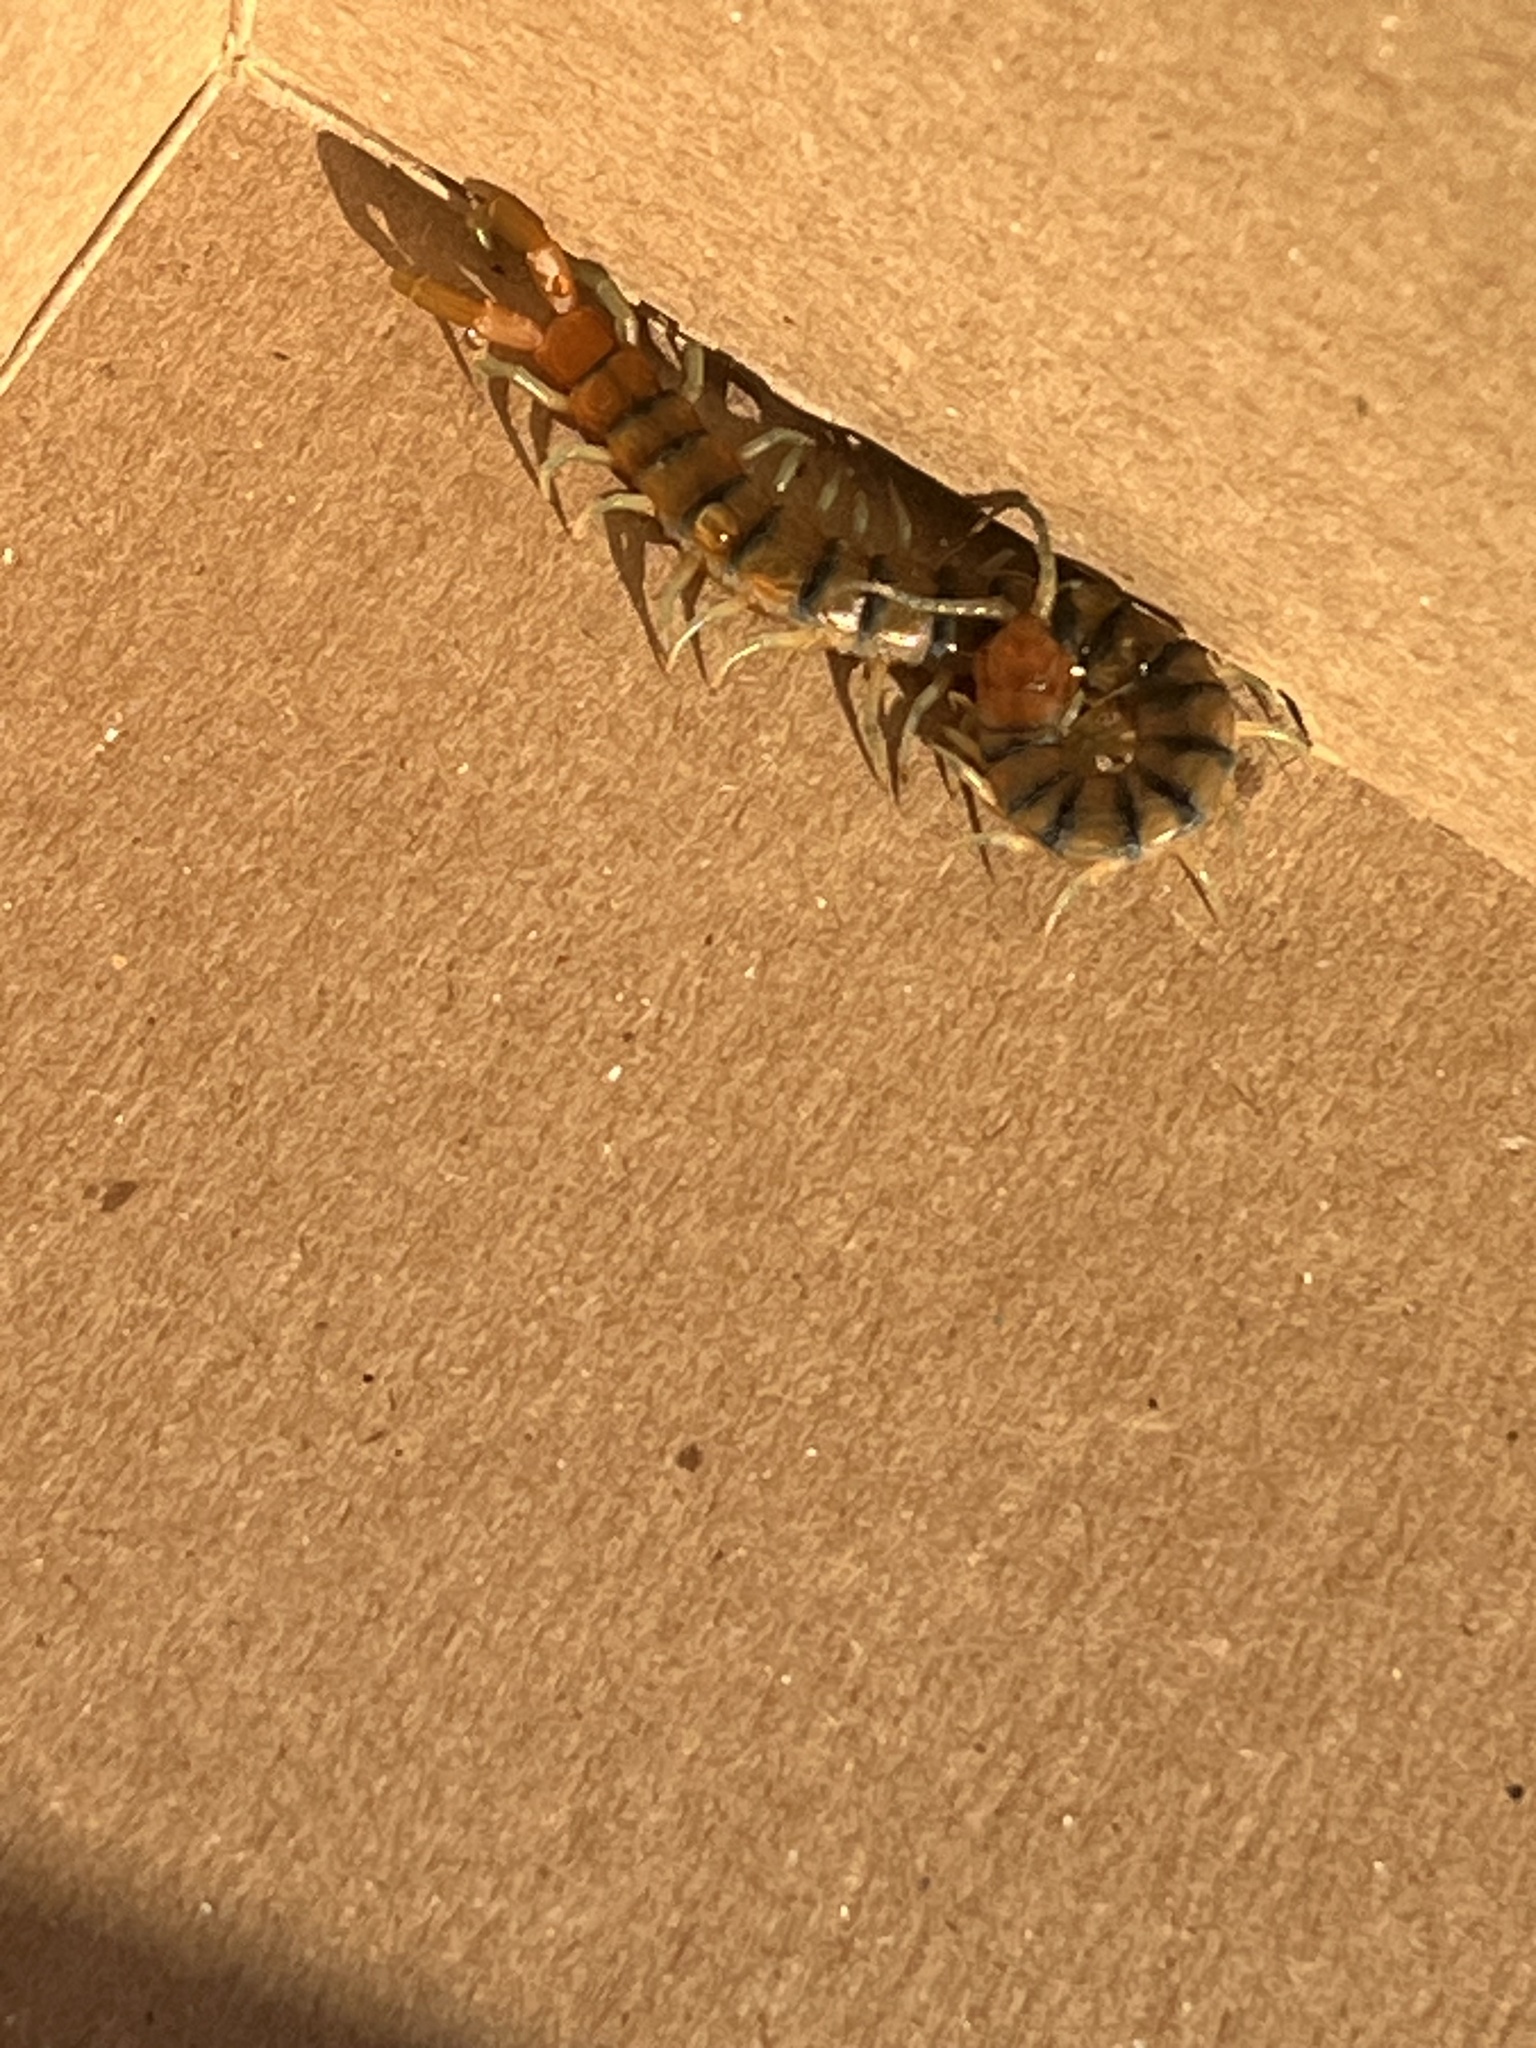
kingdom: Animalia
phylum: Arthropoda
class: Chilopoda
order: Scolopendromorpha
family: Scolopendridae
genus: Scolopendra
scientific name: Scolopendra polymorpha
